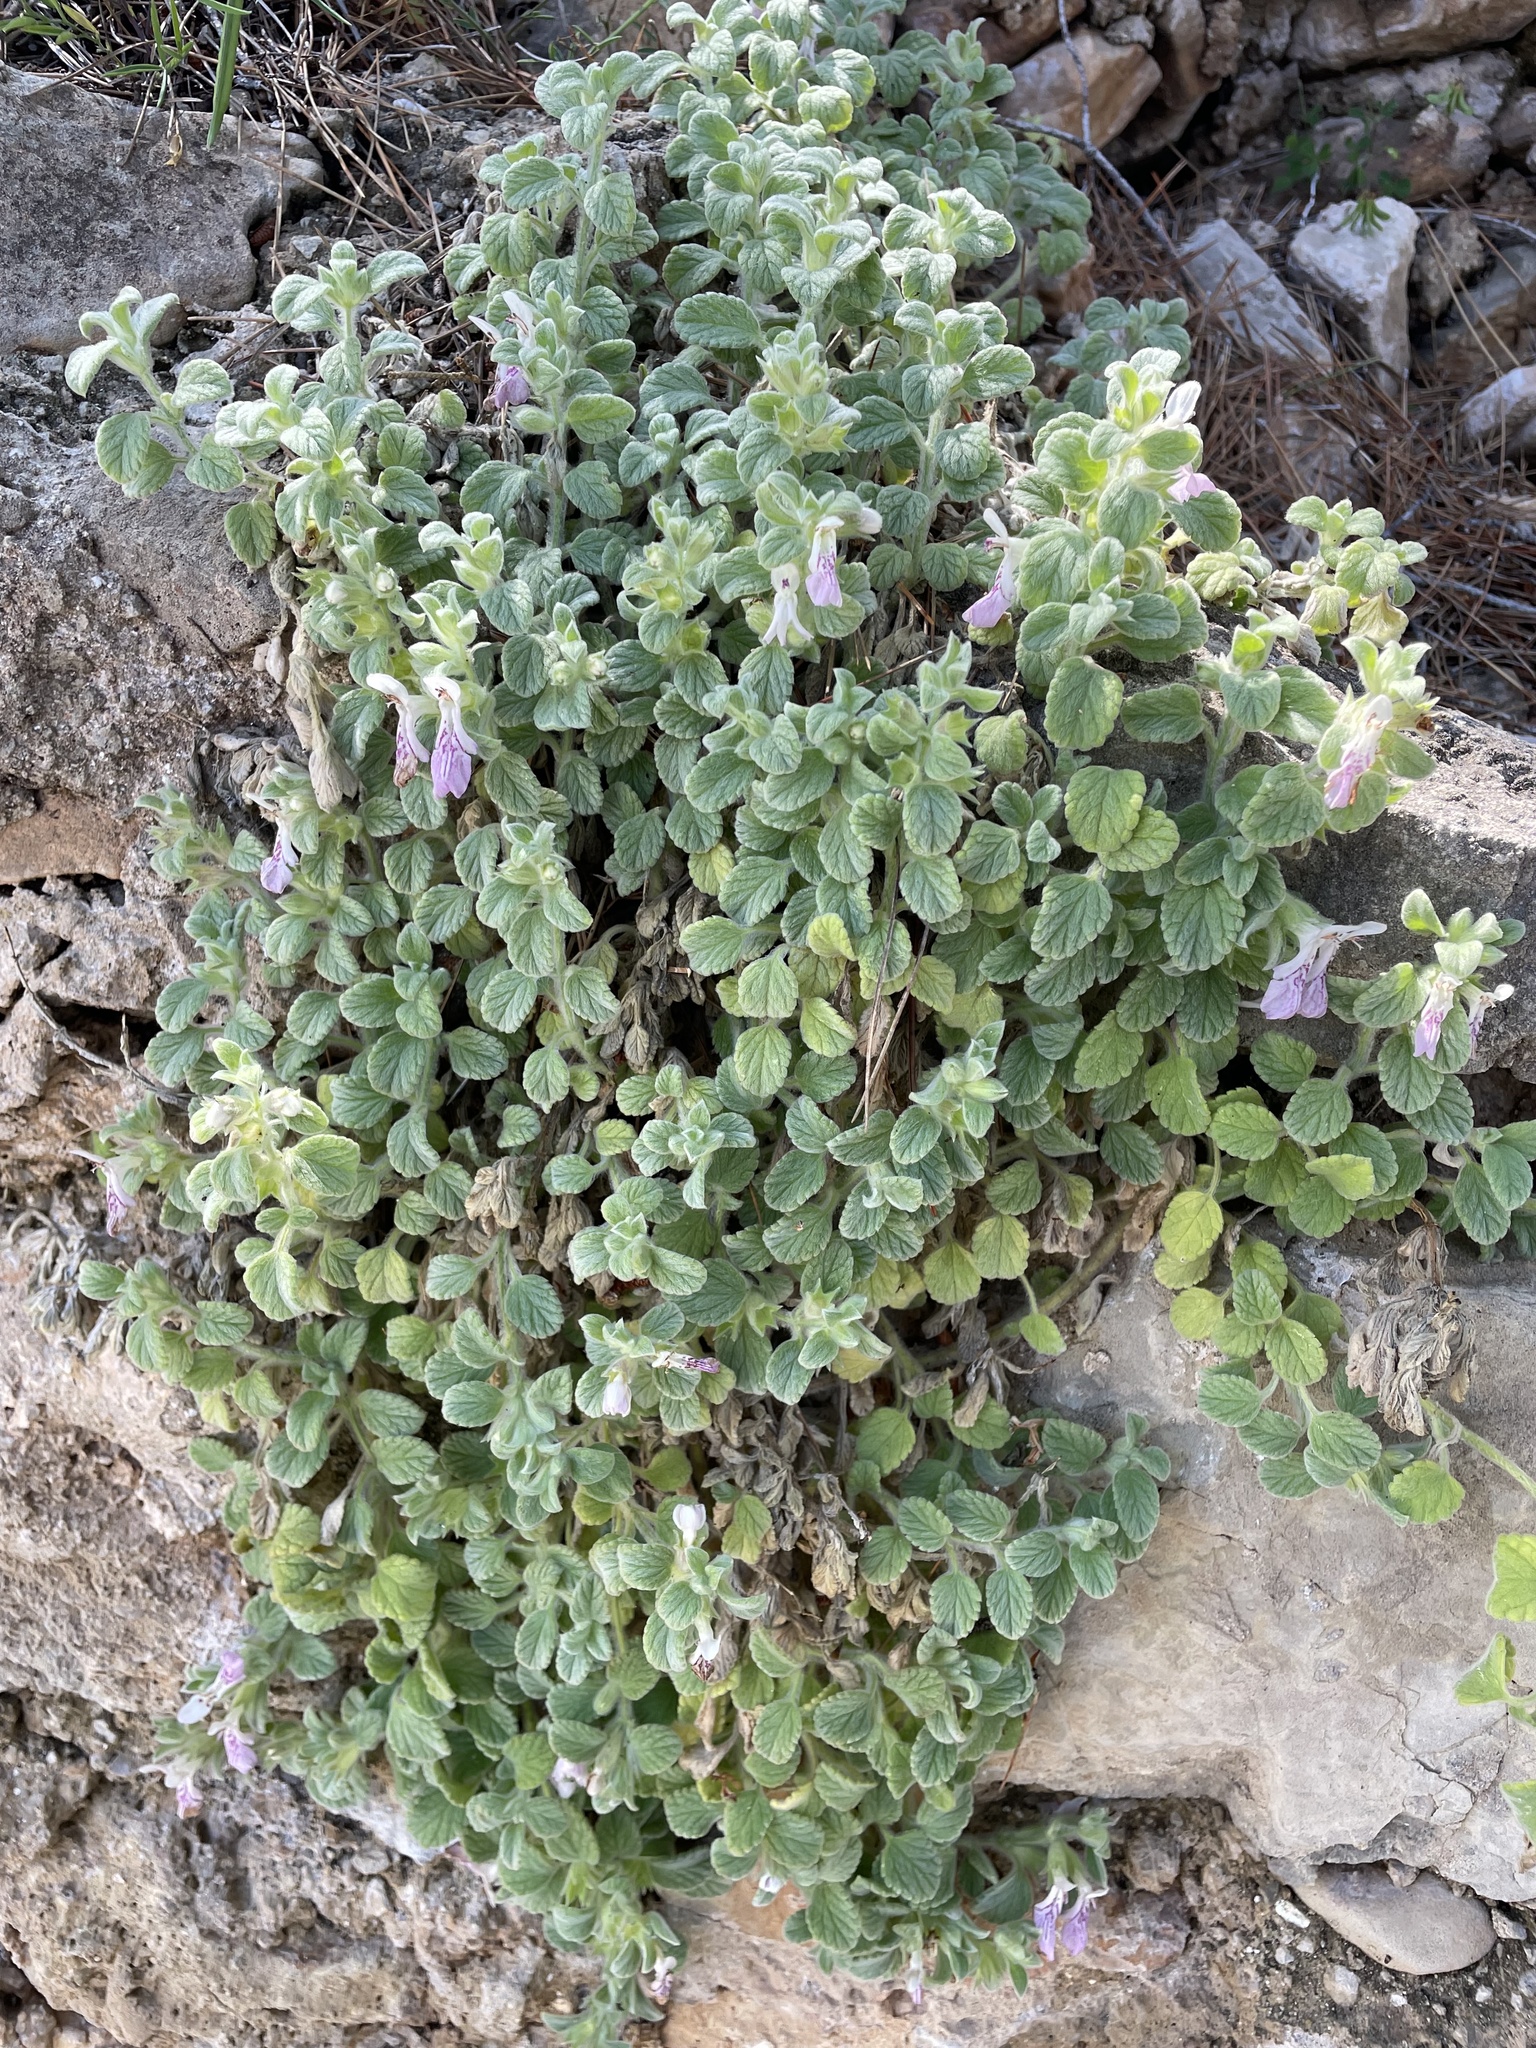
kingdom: Plantae
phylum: Tracheophyta
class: Magnoliopsida
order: Lamiales
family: Lamiaceae
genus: Stachys
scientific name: Stachys ionica
